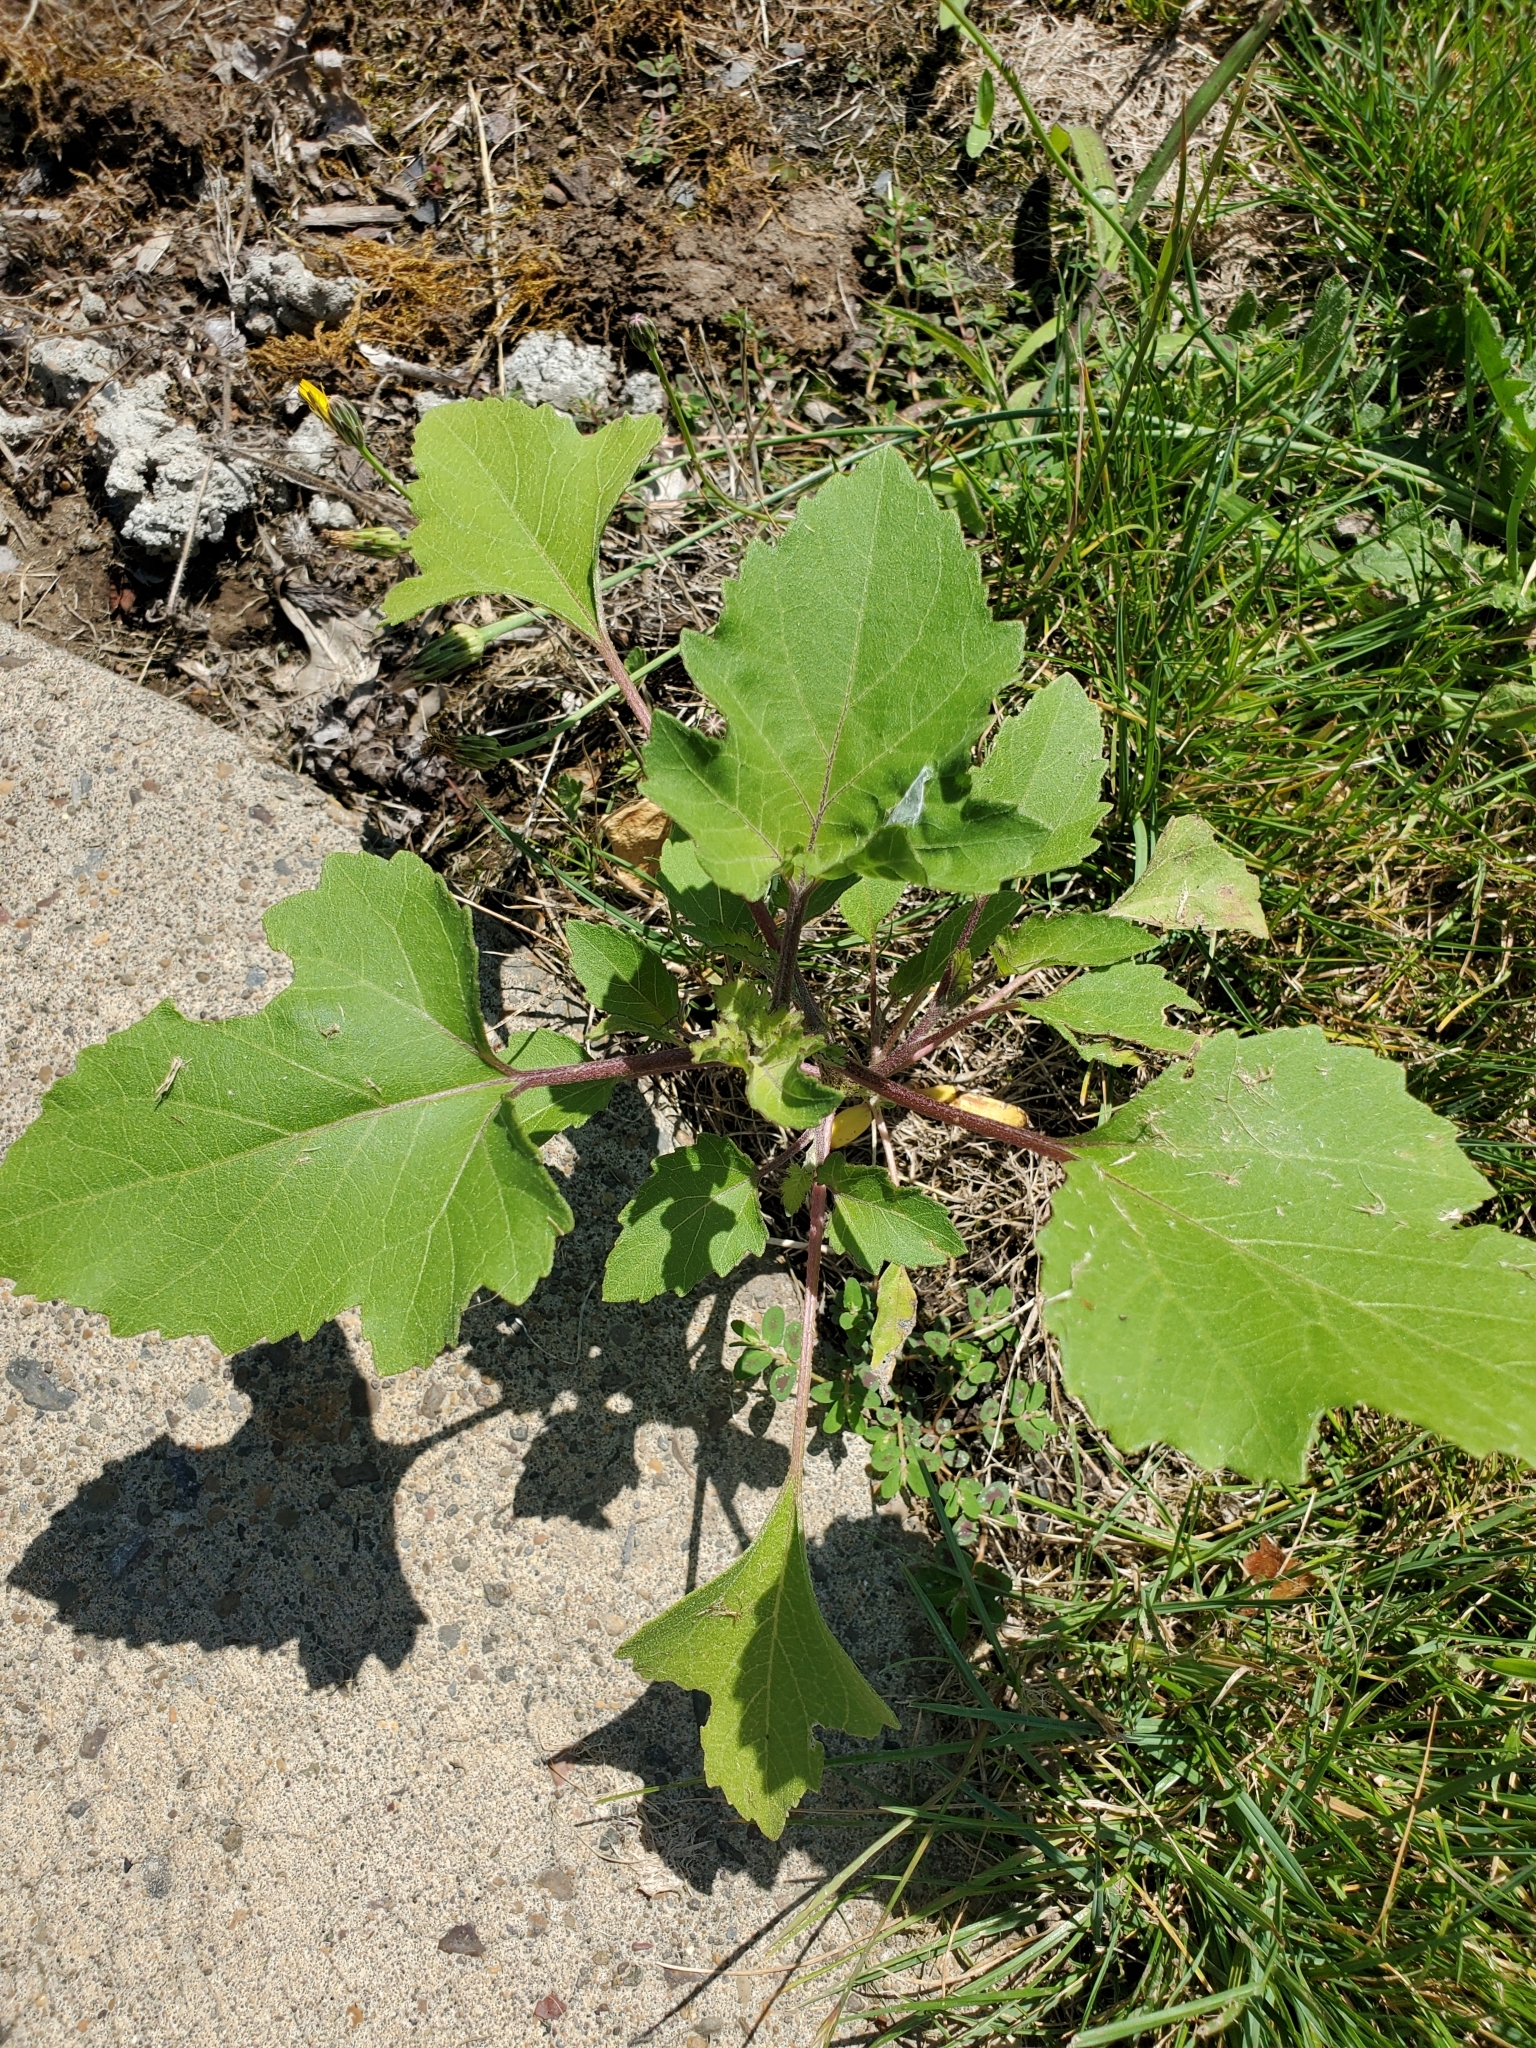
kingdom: Plantae
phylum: Tracheophyta
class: Magnoliopsida
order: Asterales
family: Asteraceae
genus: Xanthium
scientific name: Xanthium strumarium
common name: Rough cocklebur
